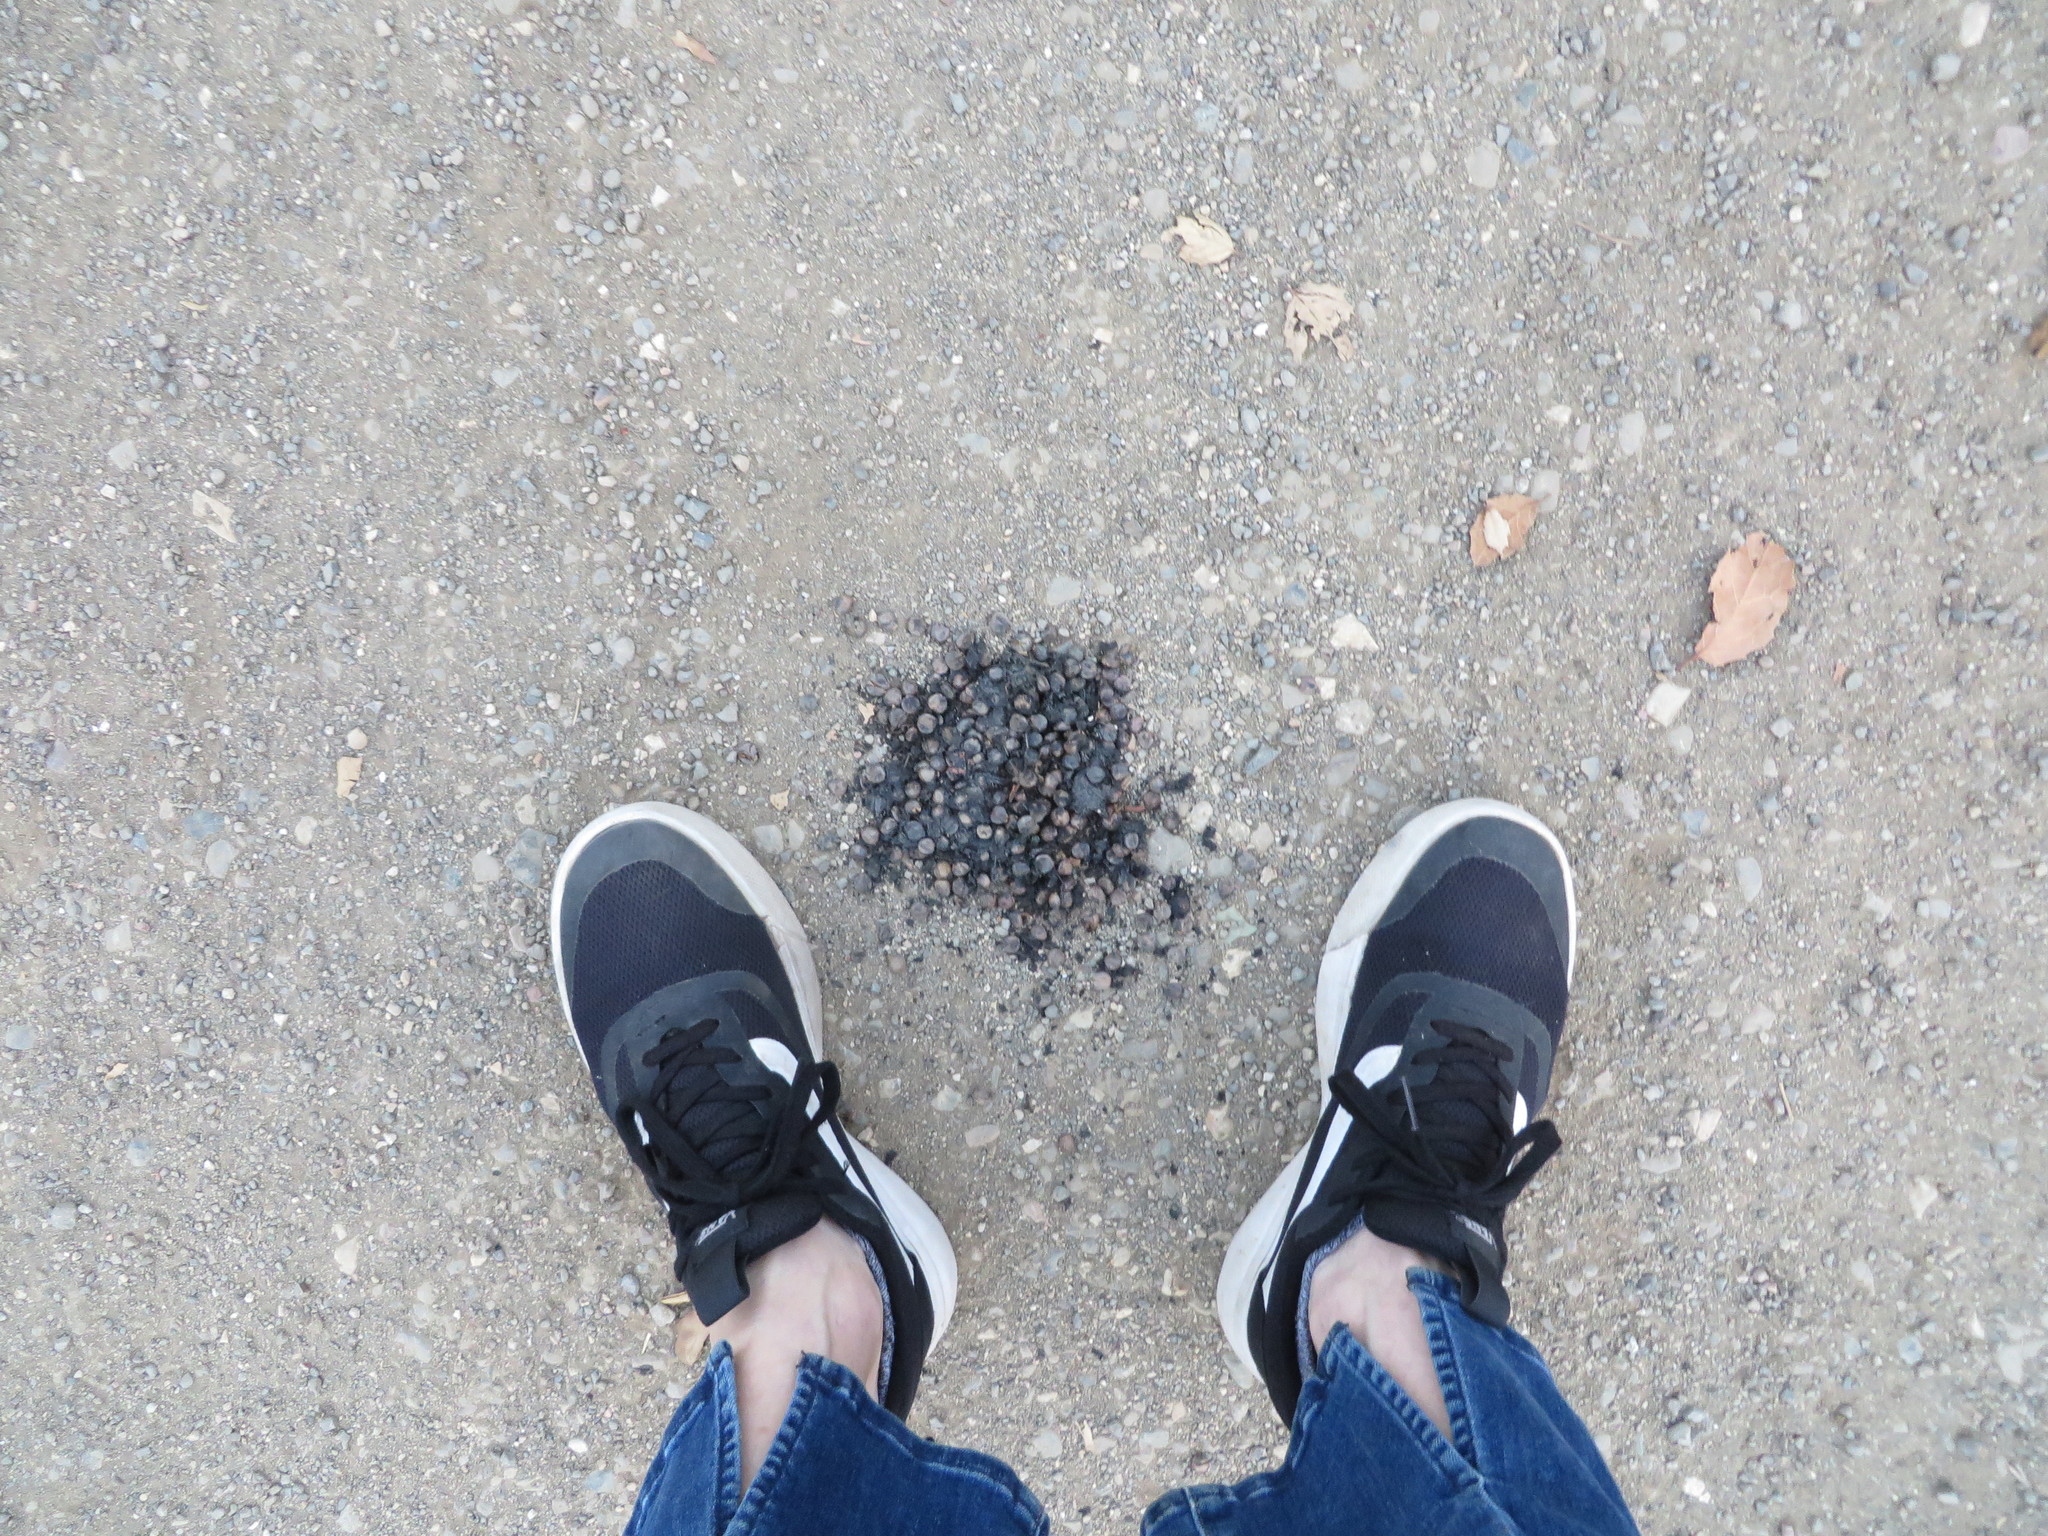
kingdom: Animalia
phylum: Chordata
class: Mammalia
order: Carnivora
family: Ursidae
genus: Ursus
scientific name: Ursus americanus
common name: American black bear
